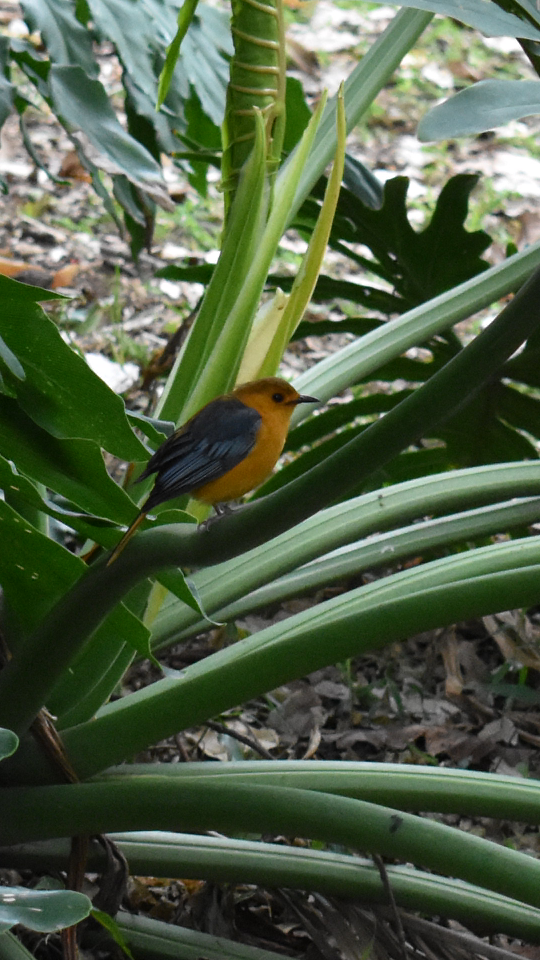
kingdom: Animalia
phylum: Chordata
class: Aves
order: Passeriformes
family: Muscicapidae
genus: Cossypha
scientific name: Cossypha natalensis
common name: Red-capped robin-chat
